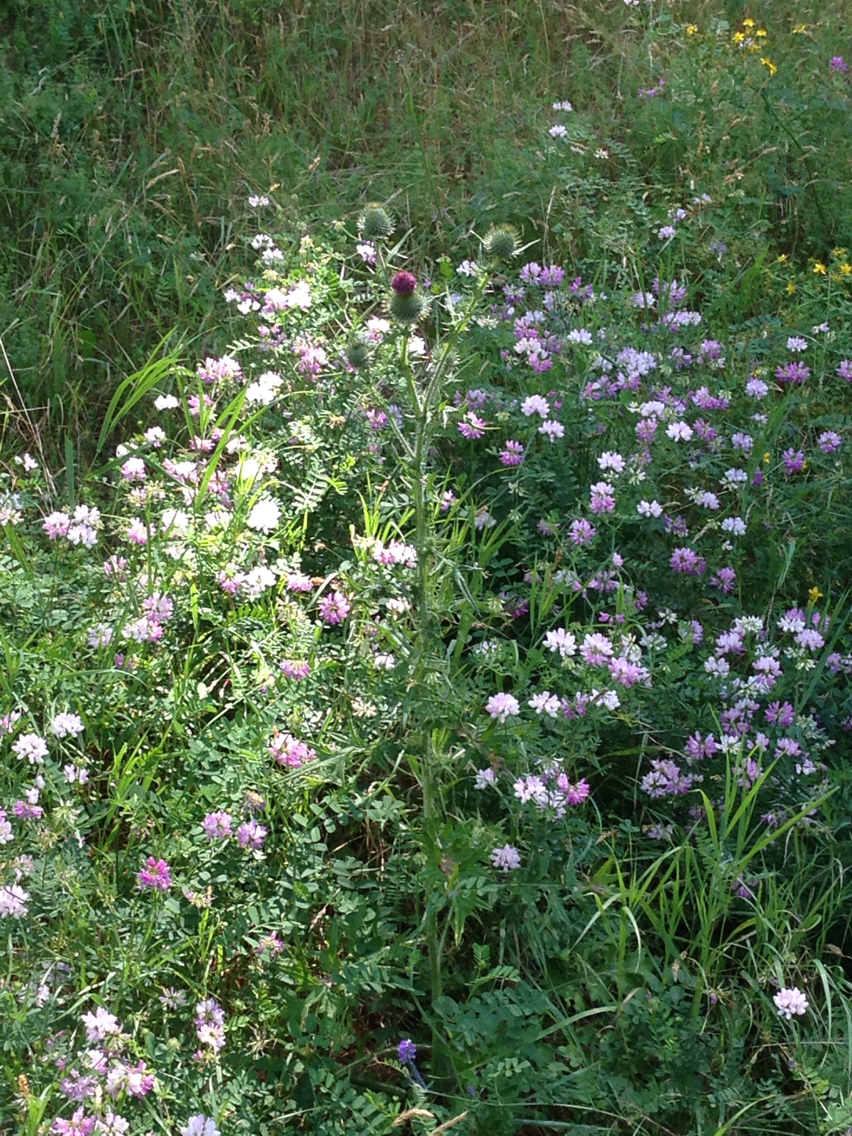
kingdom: Plantae
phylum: Tracheophyta
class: Magnoliopsida
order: Asterales
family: Asteraceae
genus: Cirsium
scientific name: Cirsium vulgare
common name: Bull thistle
